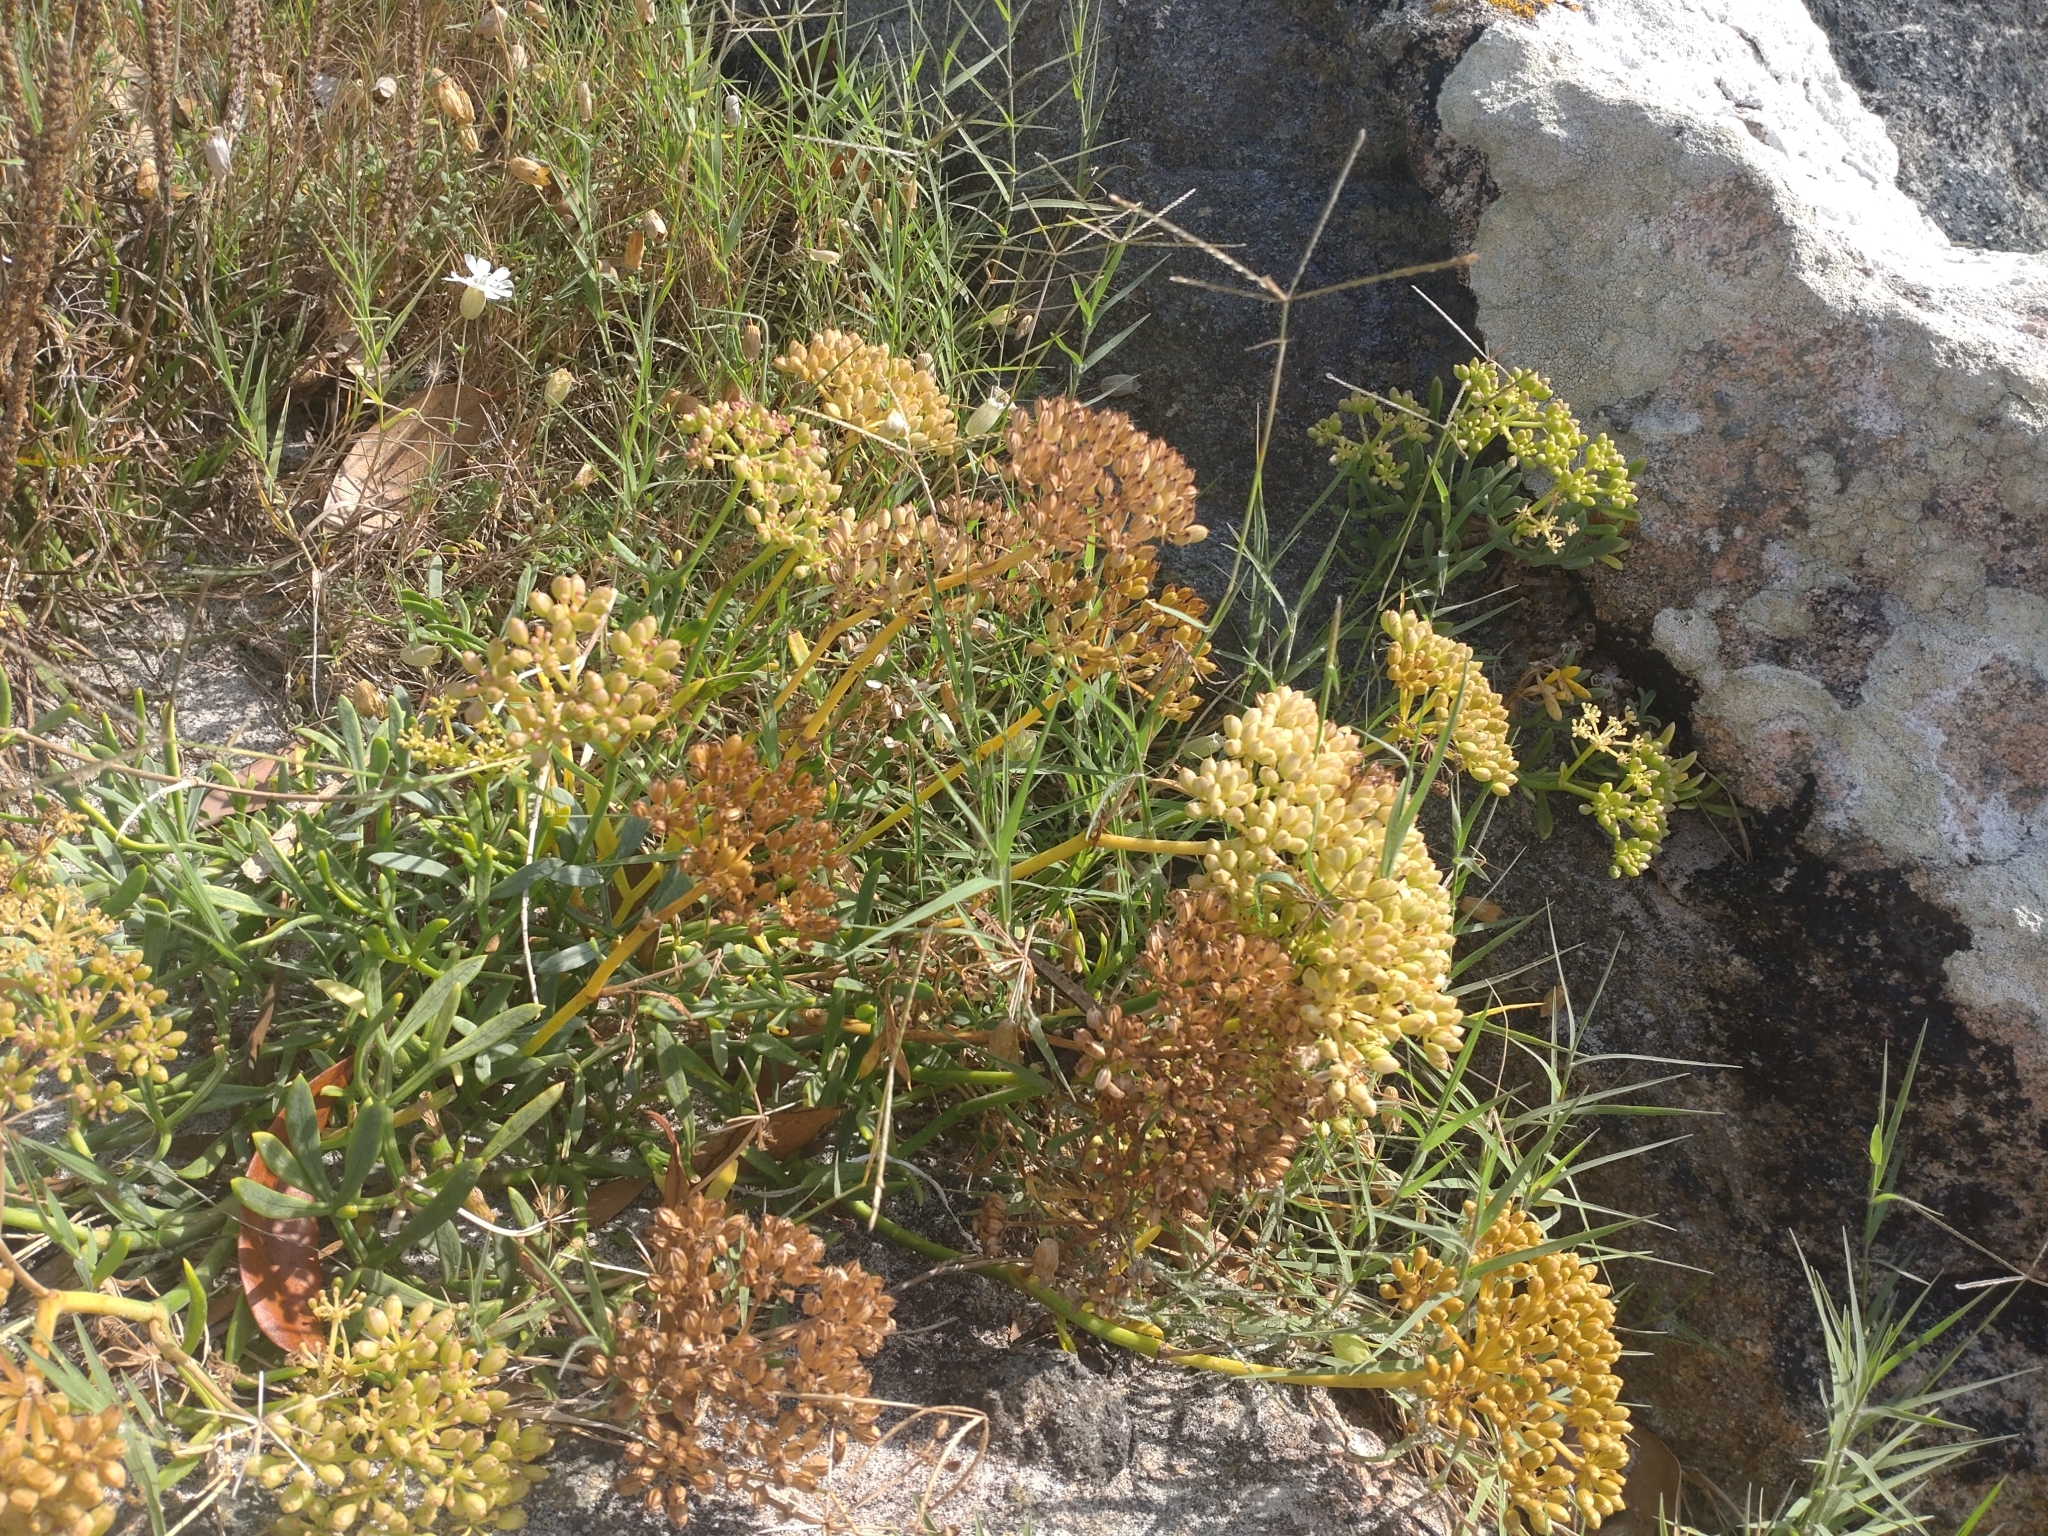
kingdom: Plantae
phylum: Tracheophyta
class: Magnoliopsida
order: Apiales
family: Apiaceae
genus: Crithmum
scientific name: Crithmum maritimum
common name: Rock samphire
